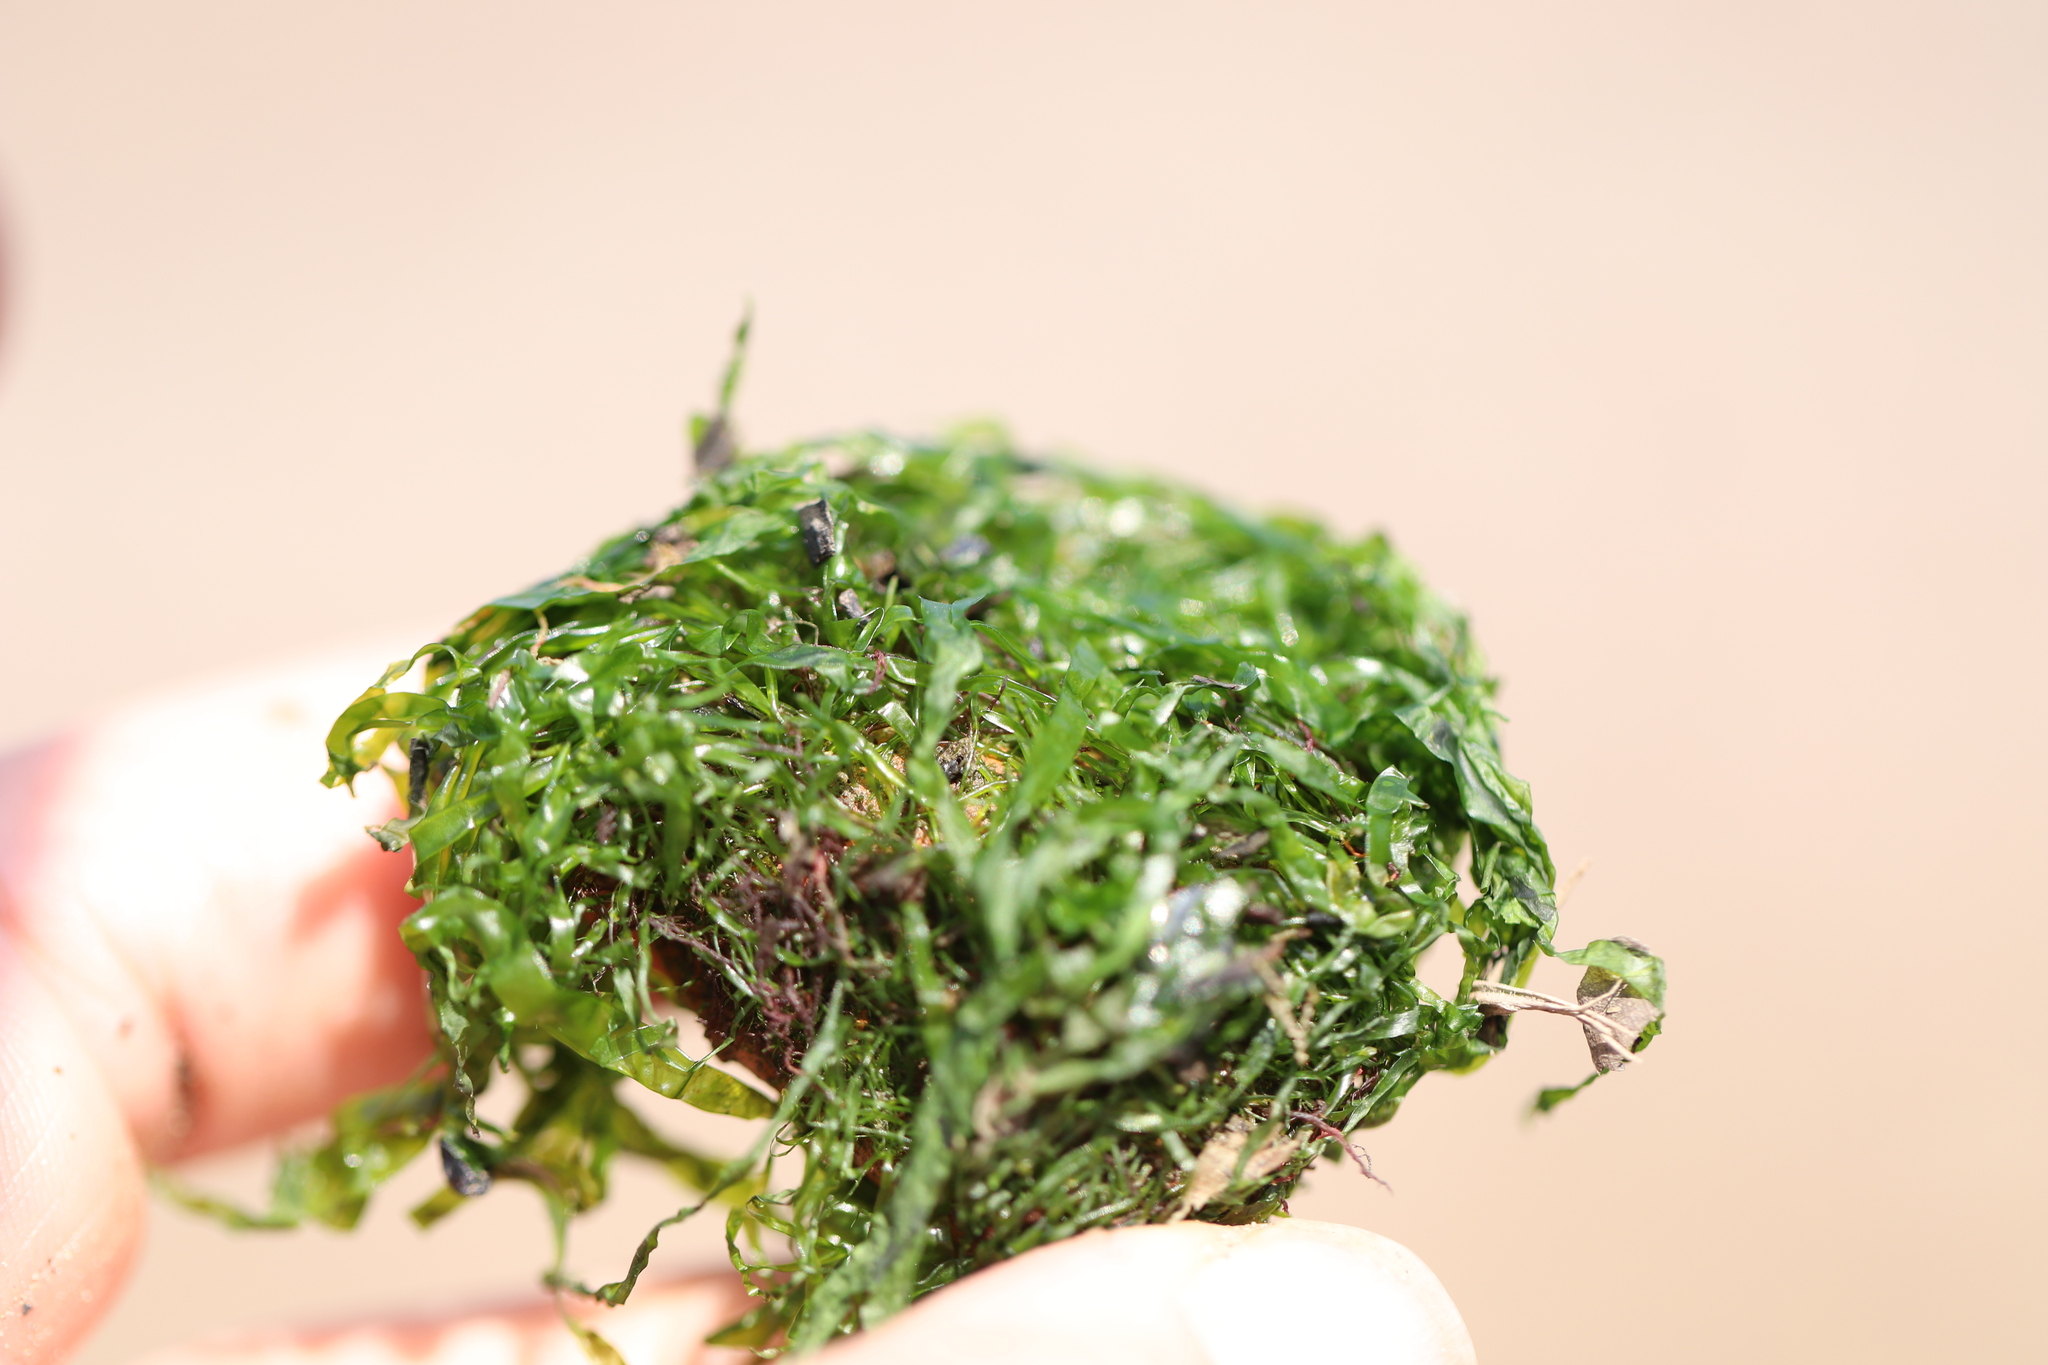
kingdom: Plantae
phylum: Chlorophyta
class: Ulvophyceae
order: Ulvales
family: Ulvaceae
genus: Ulva
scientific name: Ulva intestinalis
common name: Gut weed
